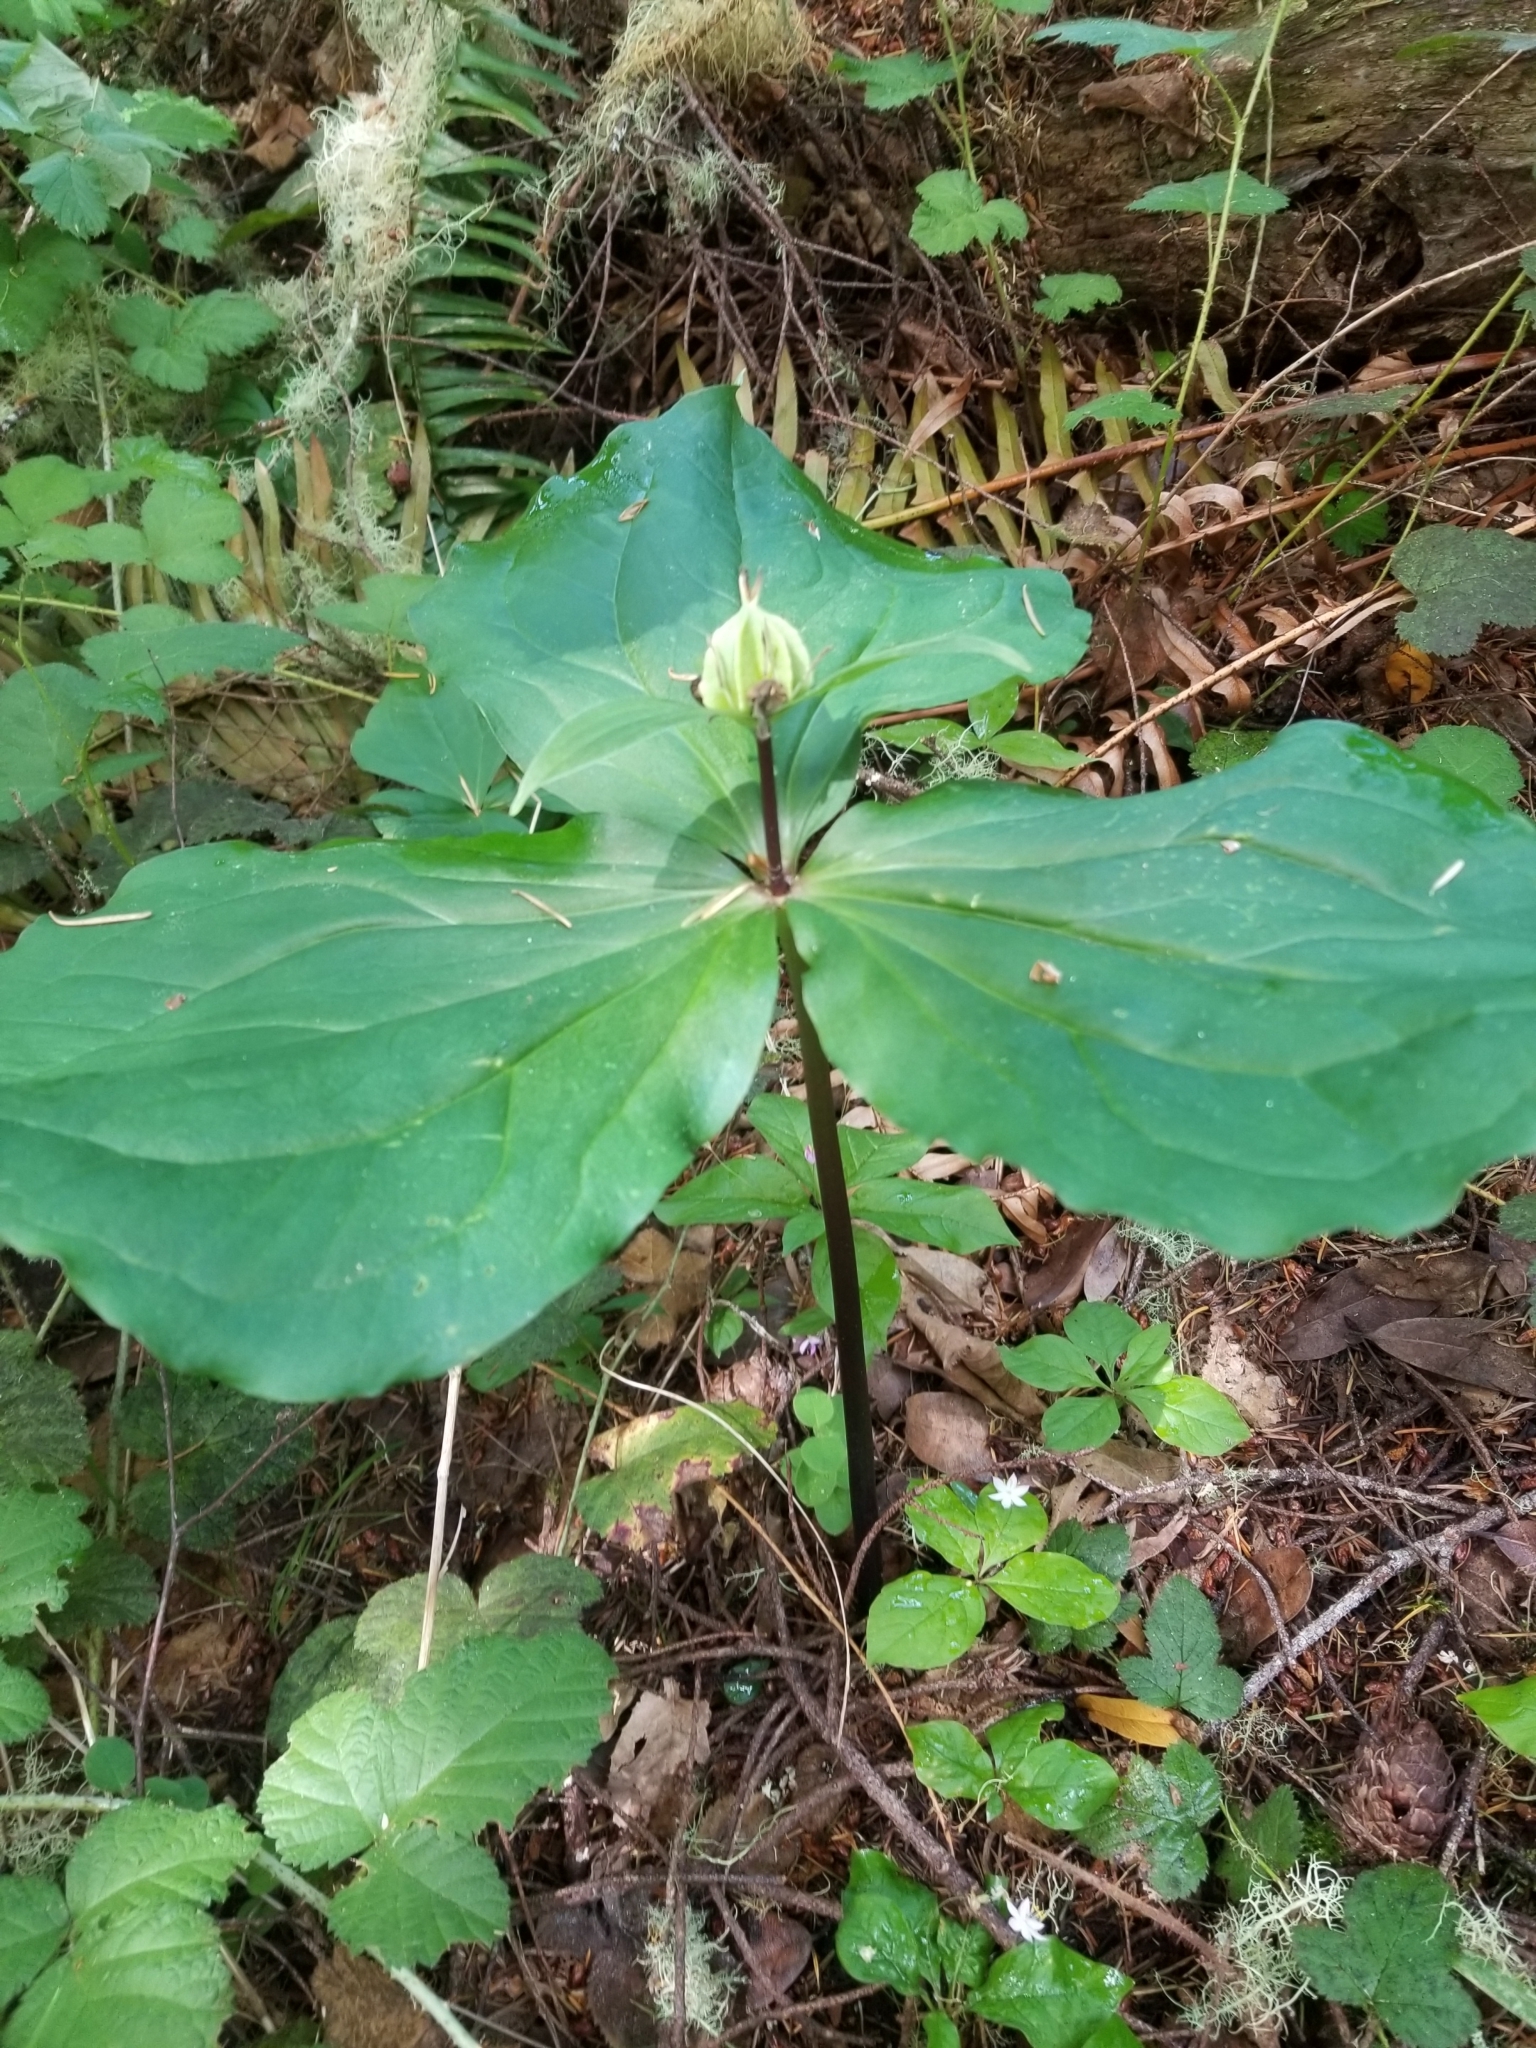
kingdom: Plantae
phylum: Tracheophyta
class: Liliopsida
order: Liliales
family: Melanthiaceae
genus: Trillium
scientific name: Trillium ovatum
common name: Pacific trillium
